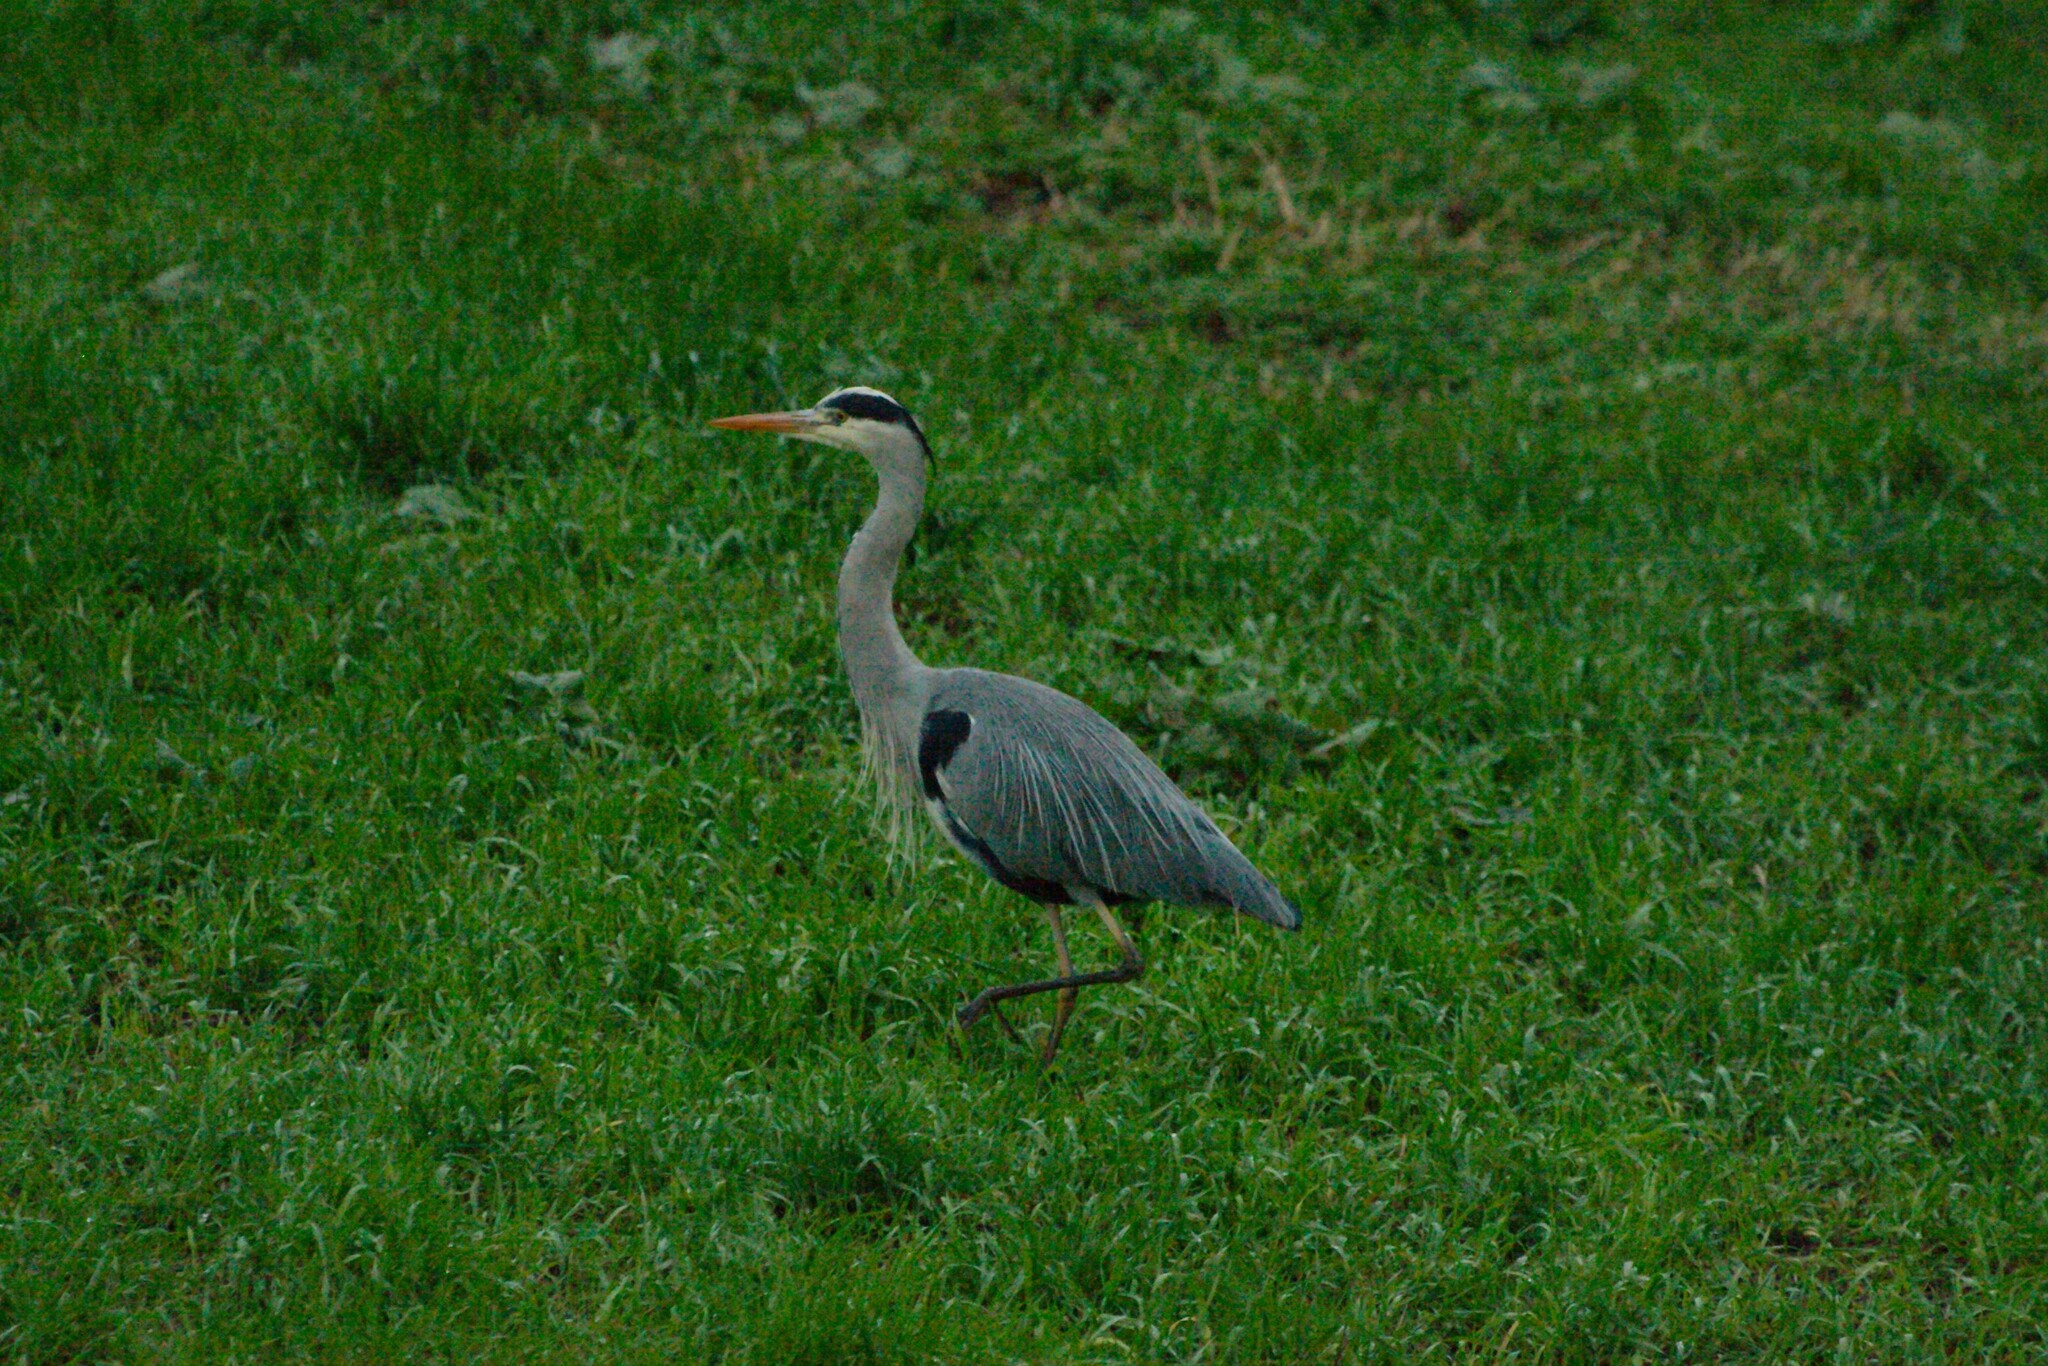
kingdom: Animalia
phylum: Chordata
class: Aves
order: Pelecaniformes
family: Ardeidae
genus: Ardea
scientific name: Ardea cinerea
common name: Grey heron
